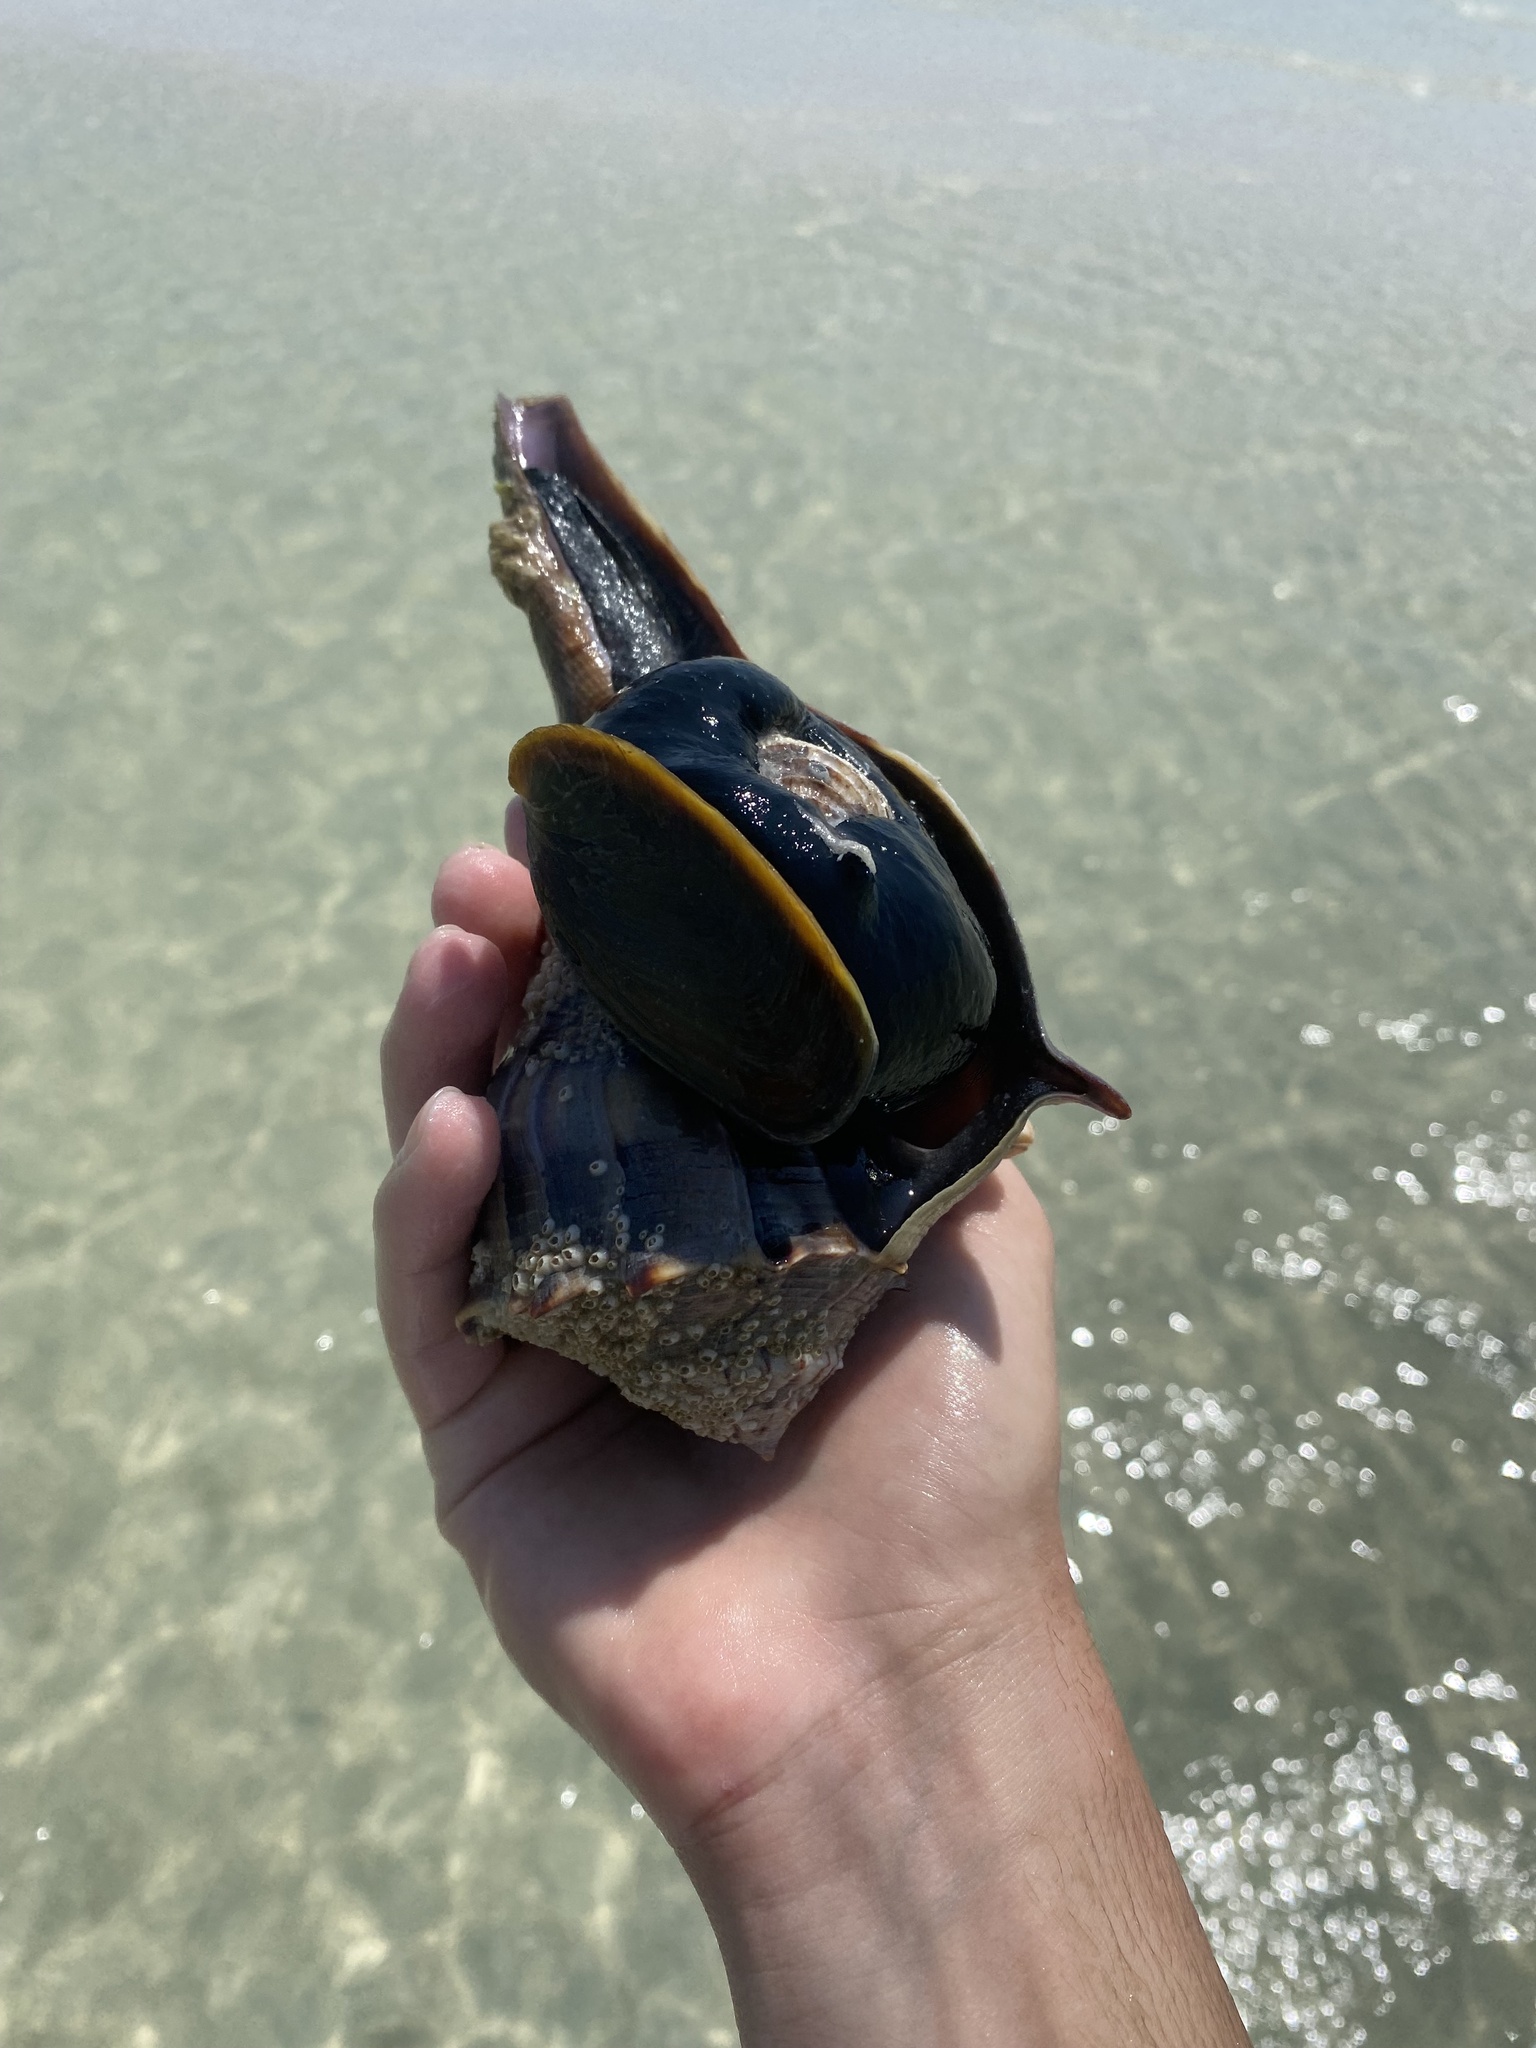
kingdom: Animalia
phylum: Mollusca
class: Gastropoda
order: Neogastropoda
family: Busyconidae
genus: Sinistrofulgur
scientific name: Sinistrofulgur sinistrum
